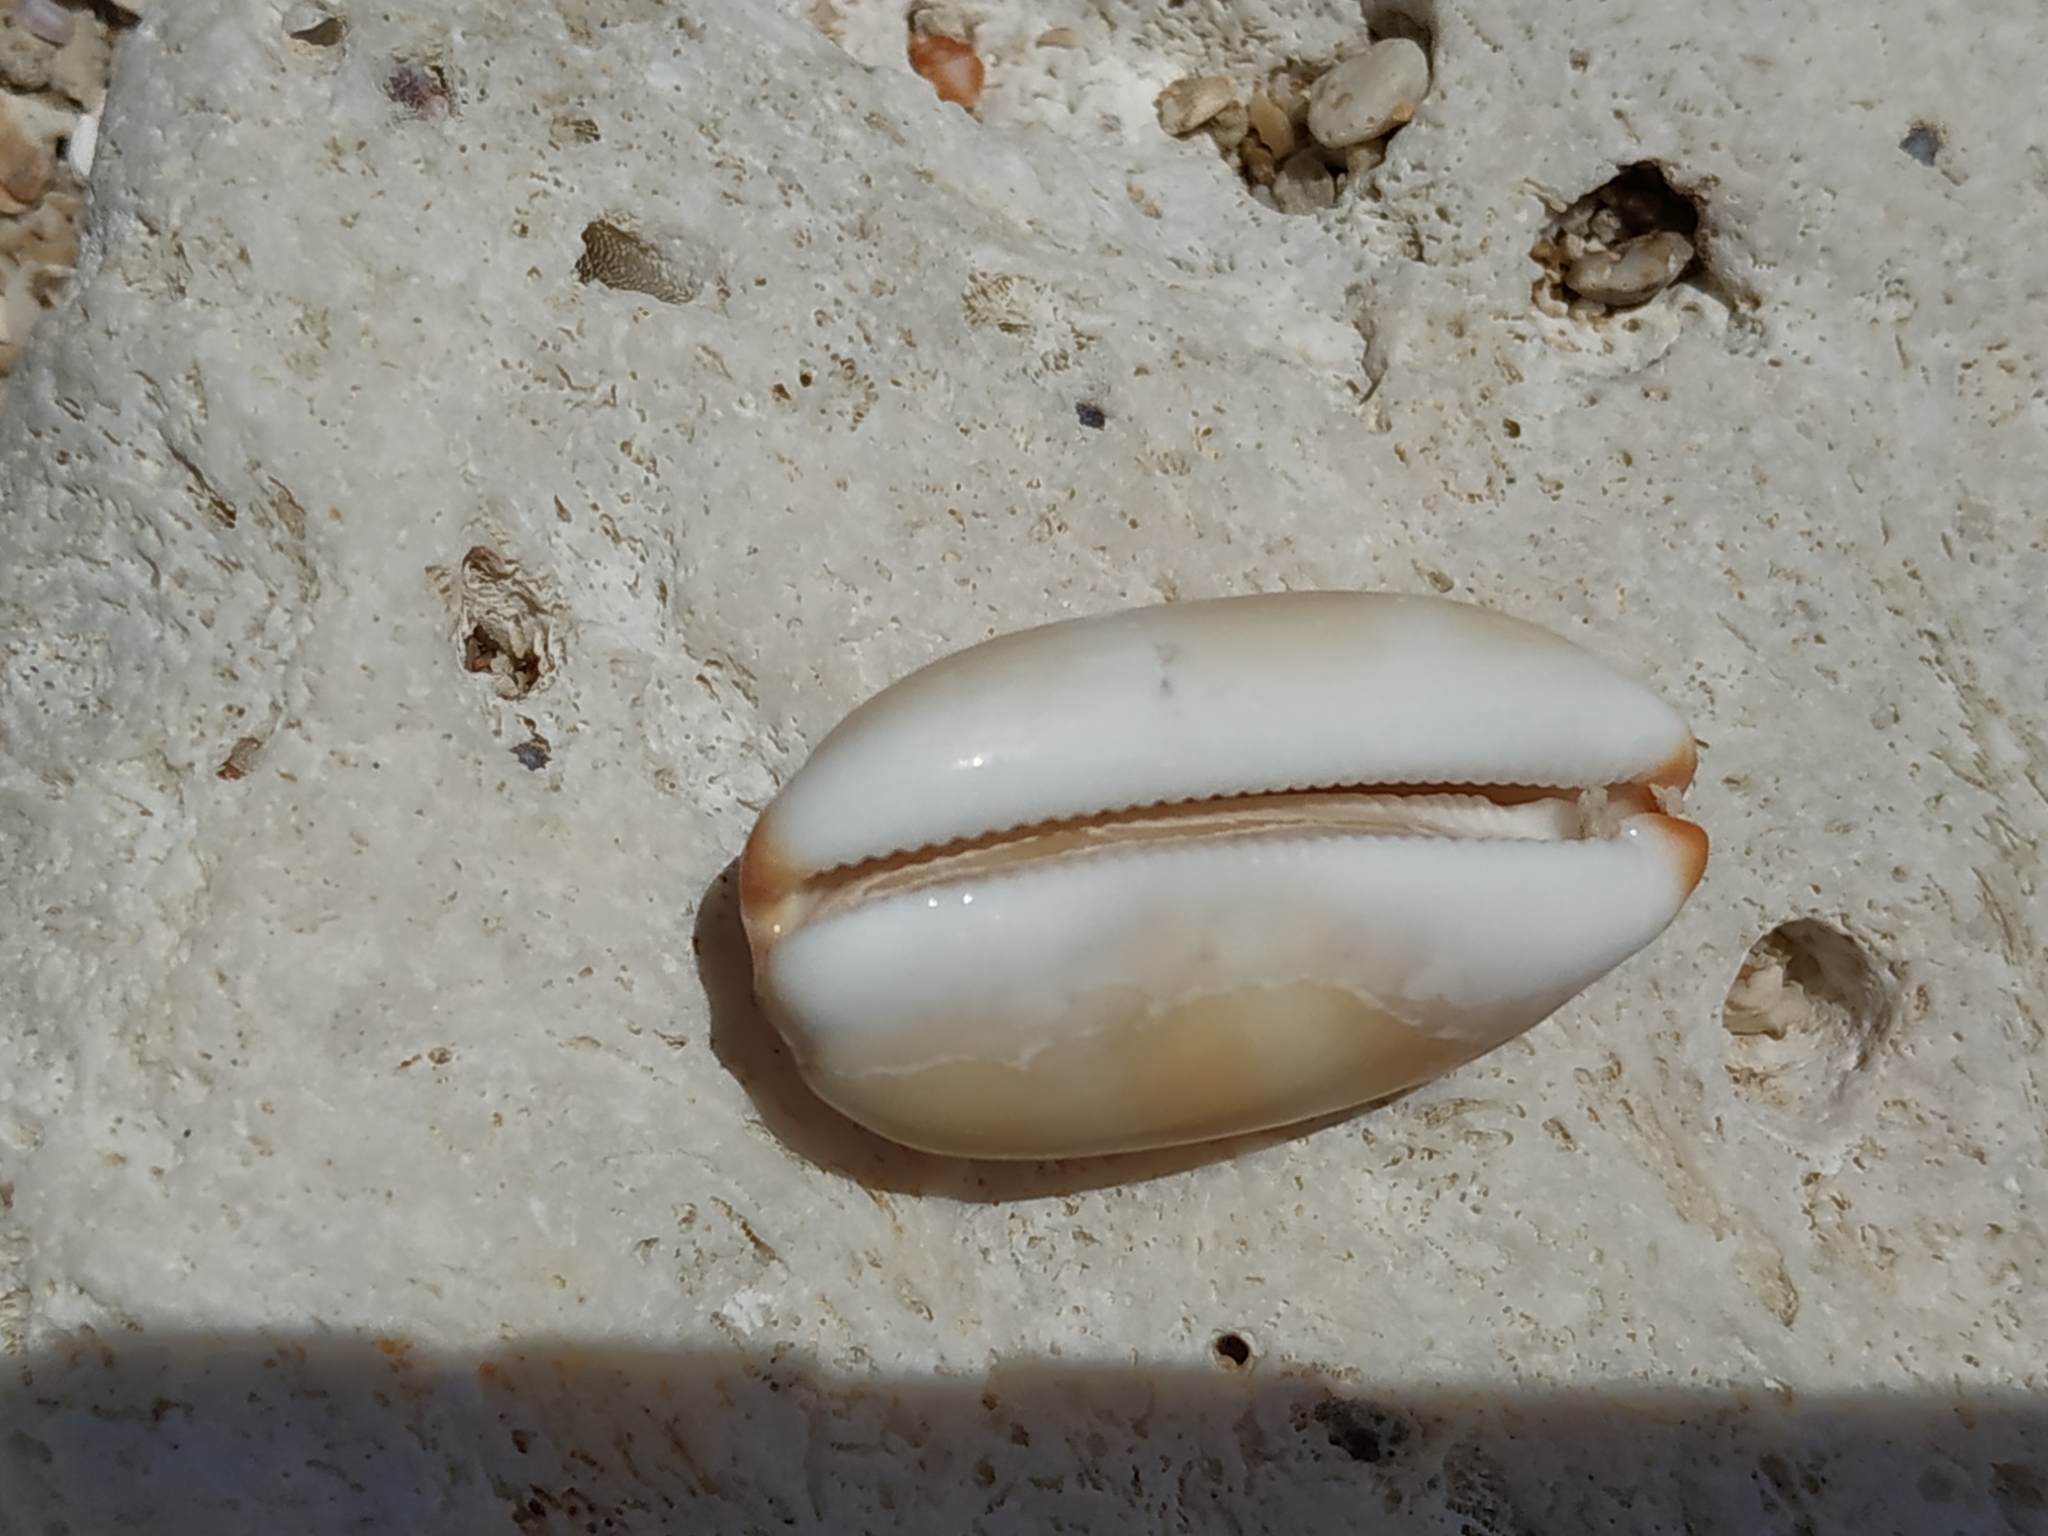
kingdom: Animalia
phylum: Mollusca
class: Gastropoda
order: Littorinimorpha
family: Cypraeidae
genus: Luria
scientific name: Luria isabella
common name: Isabell cowry
